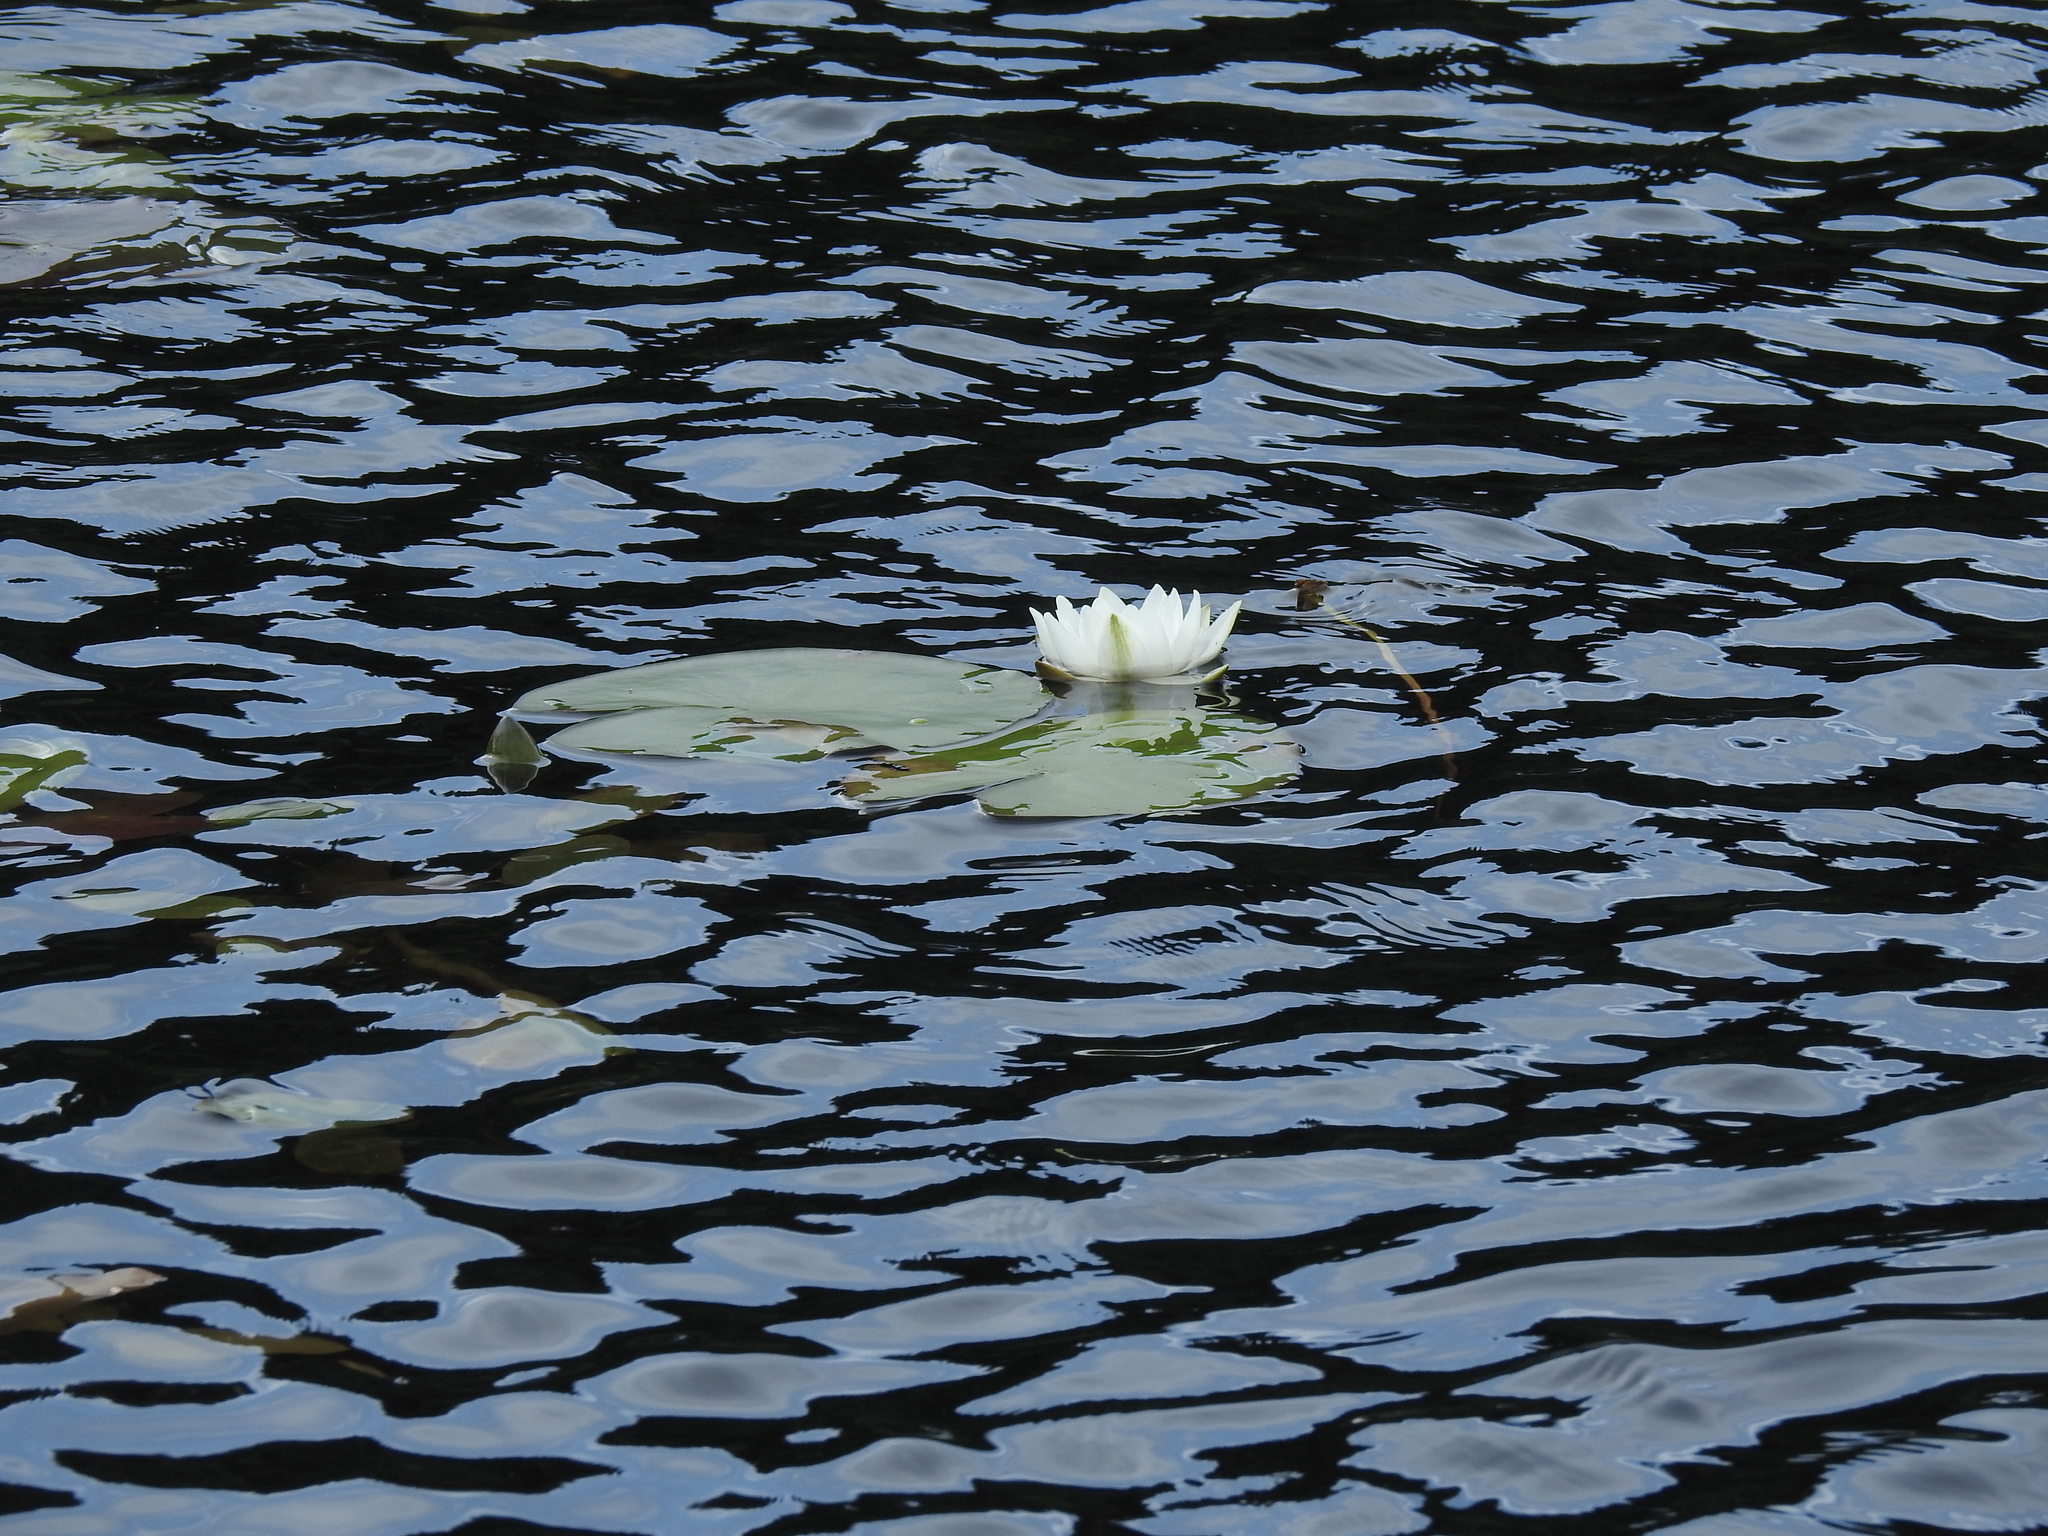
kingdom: Plantae
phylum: Tracheophyta
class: Magnoliopsida
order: Nymphaeales
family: Nymphaeaceae
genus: Nymphaea
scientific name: Nymphaea alba
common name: White water-lily
